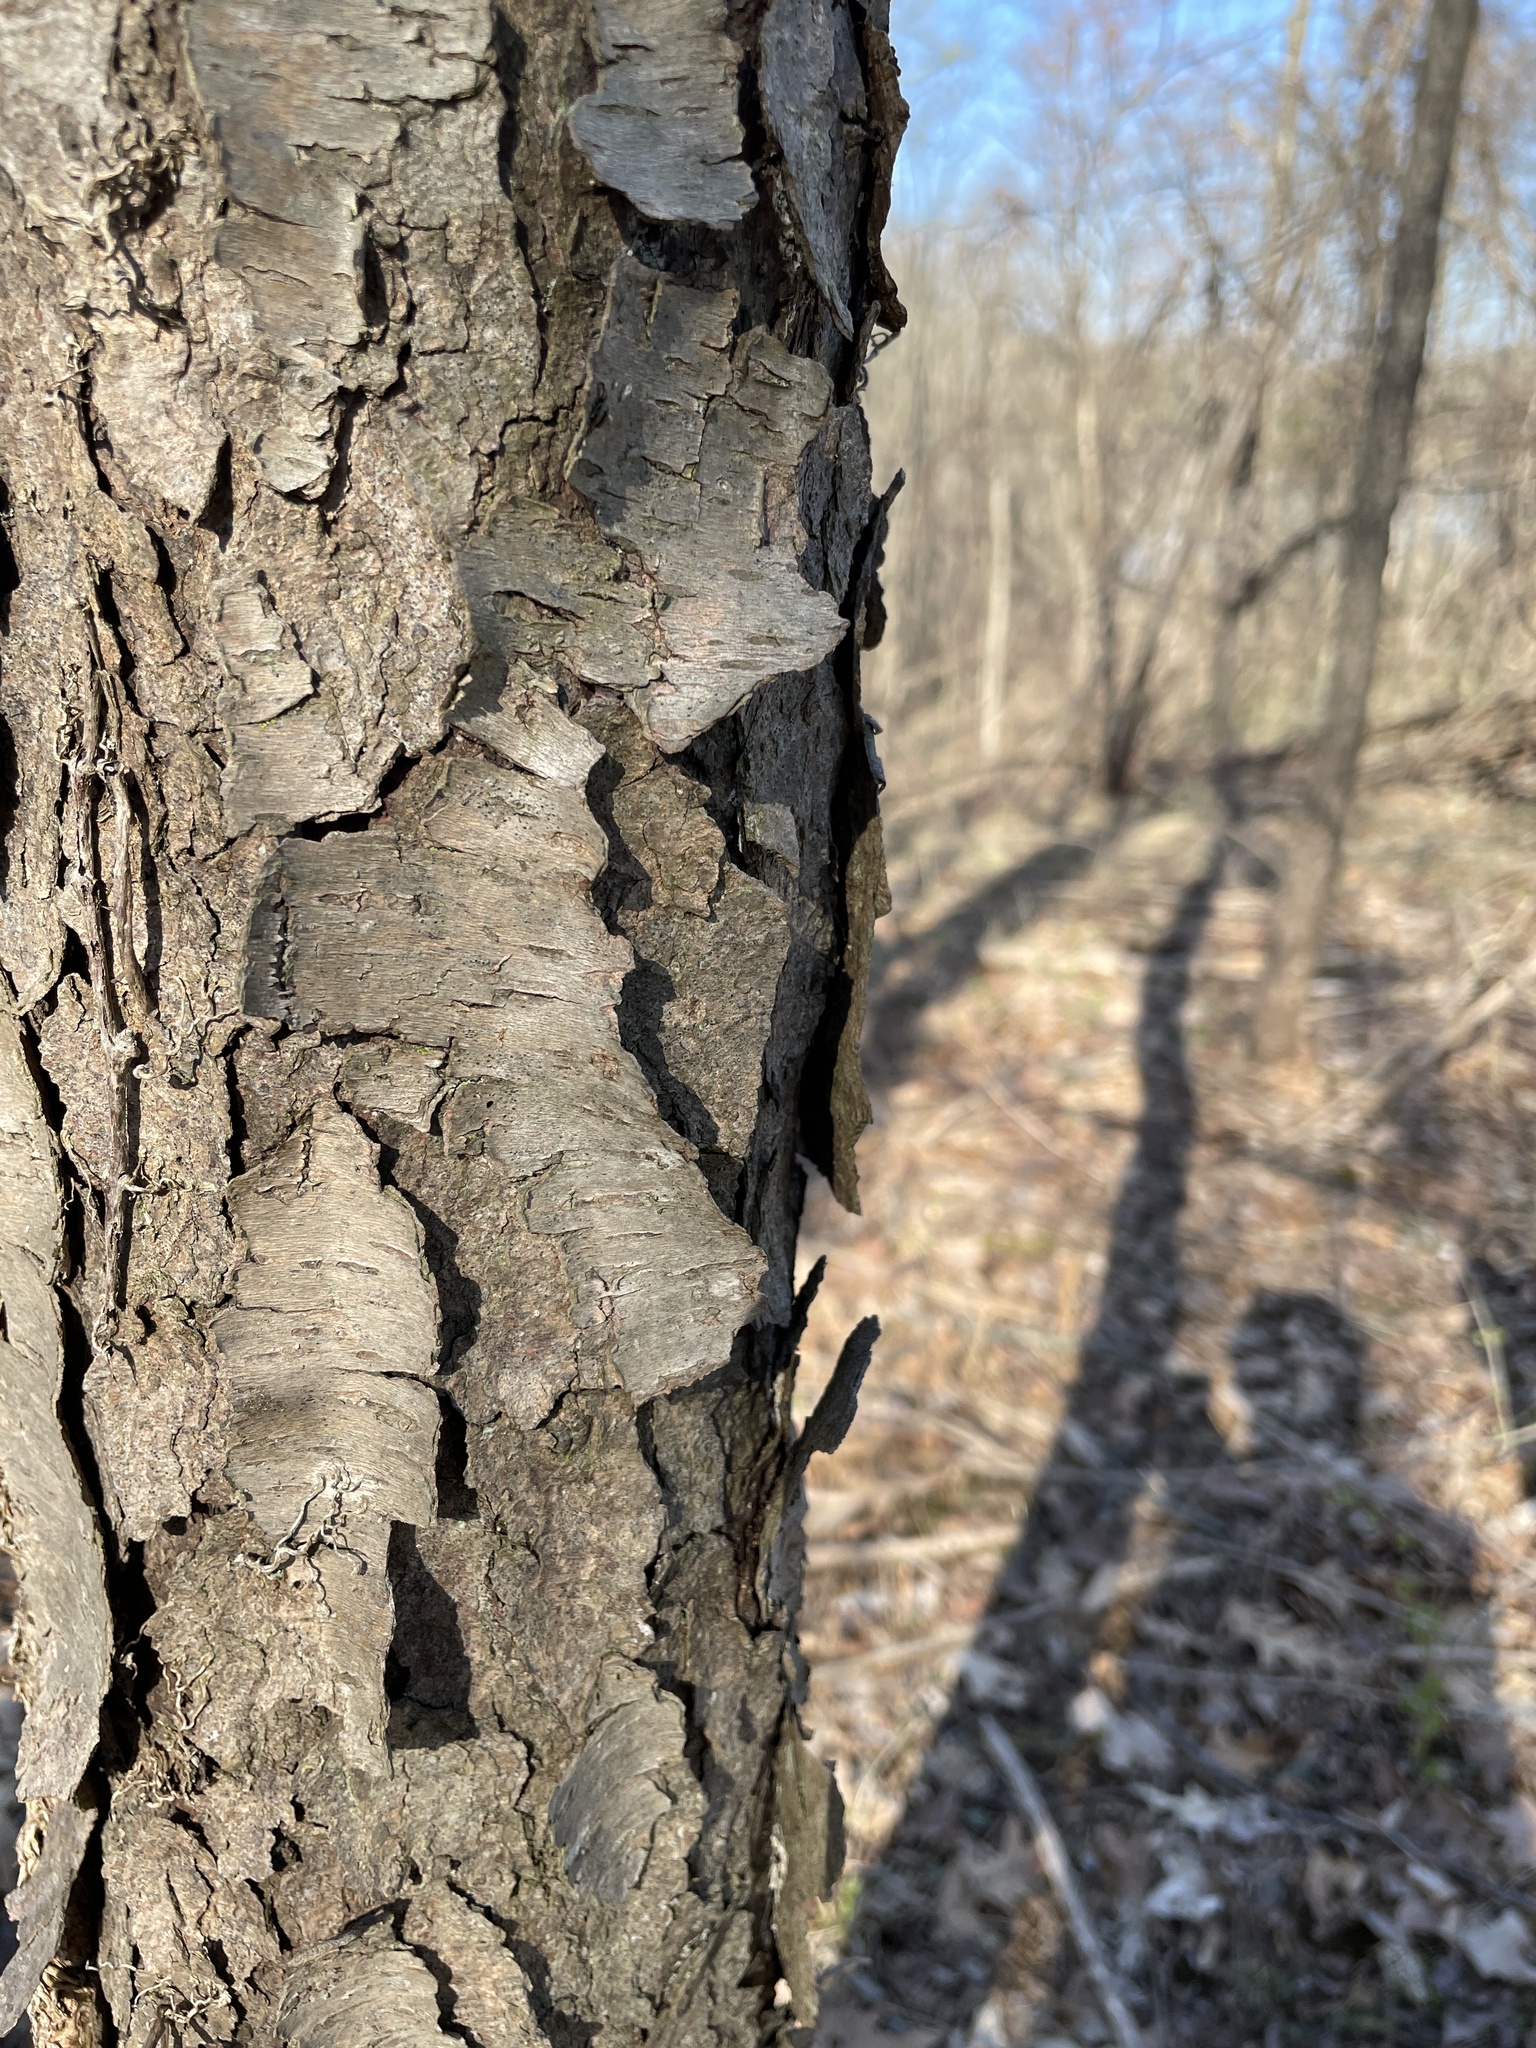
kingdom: Plantae
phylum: Tracheophyta
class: Magnoliopsida
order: Rosales
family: Rosaceae
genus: Prunus
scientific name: Prunus serotina
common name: Black cherry
